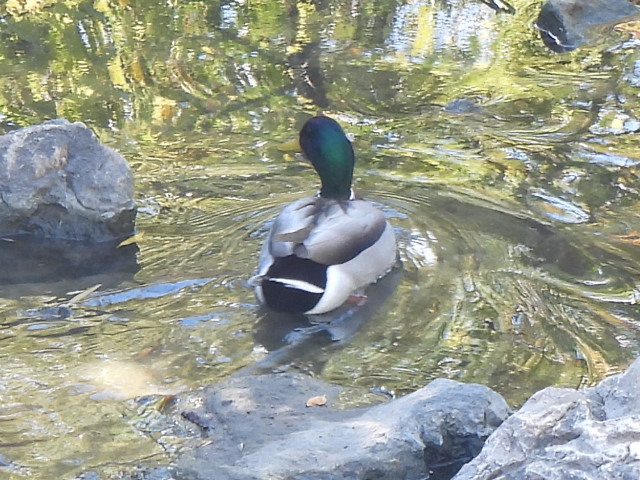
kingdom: Animalia
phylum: Chordata
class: Aves
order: Anseriformes
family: Anatidae
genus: Anas
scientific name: Anas platyrhynchos
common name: Mallard
